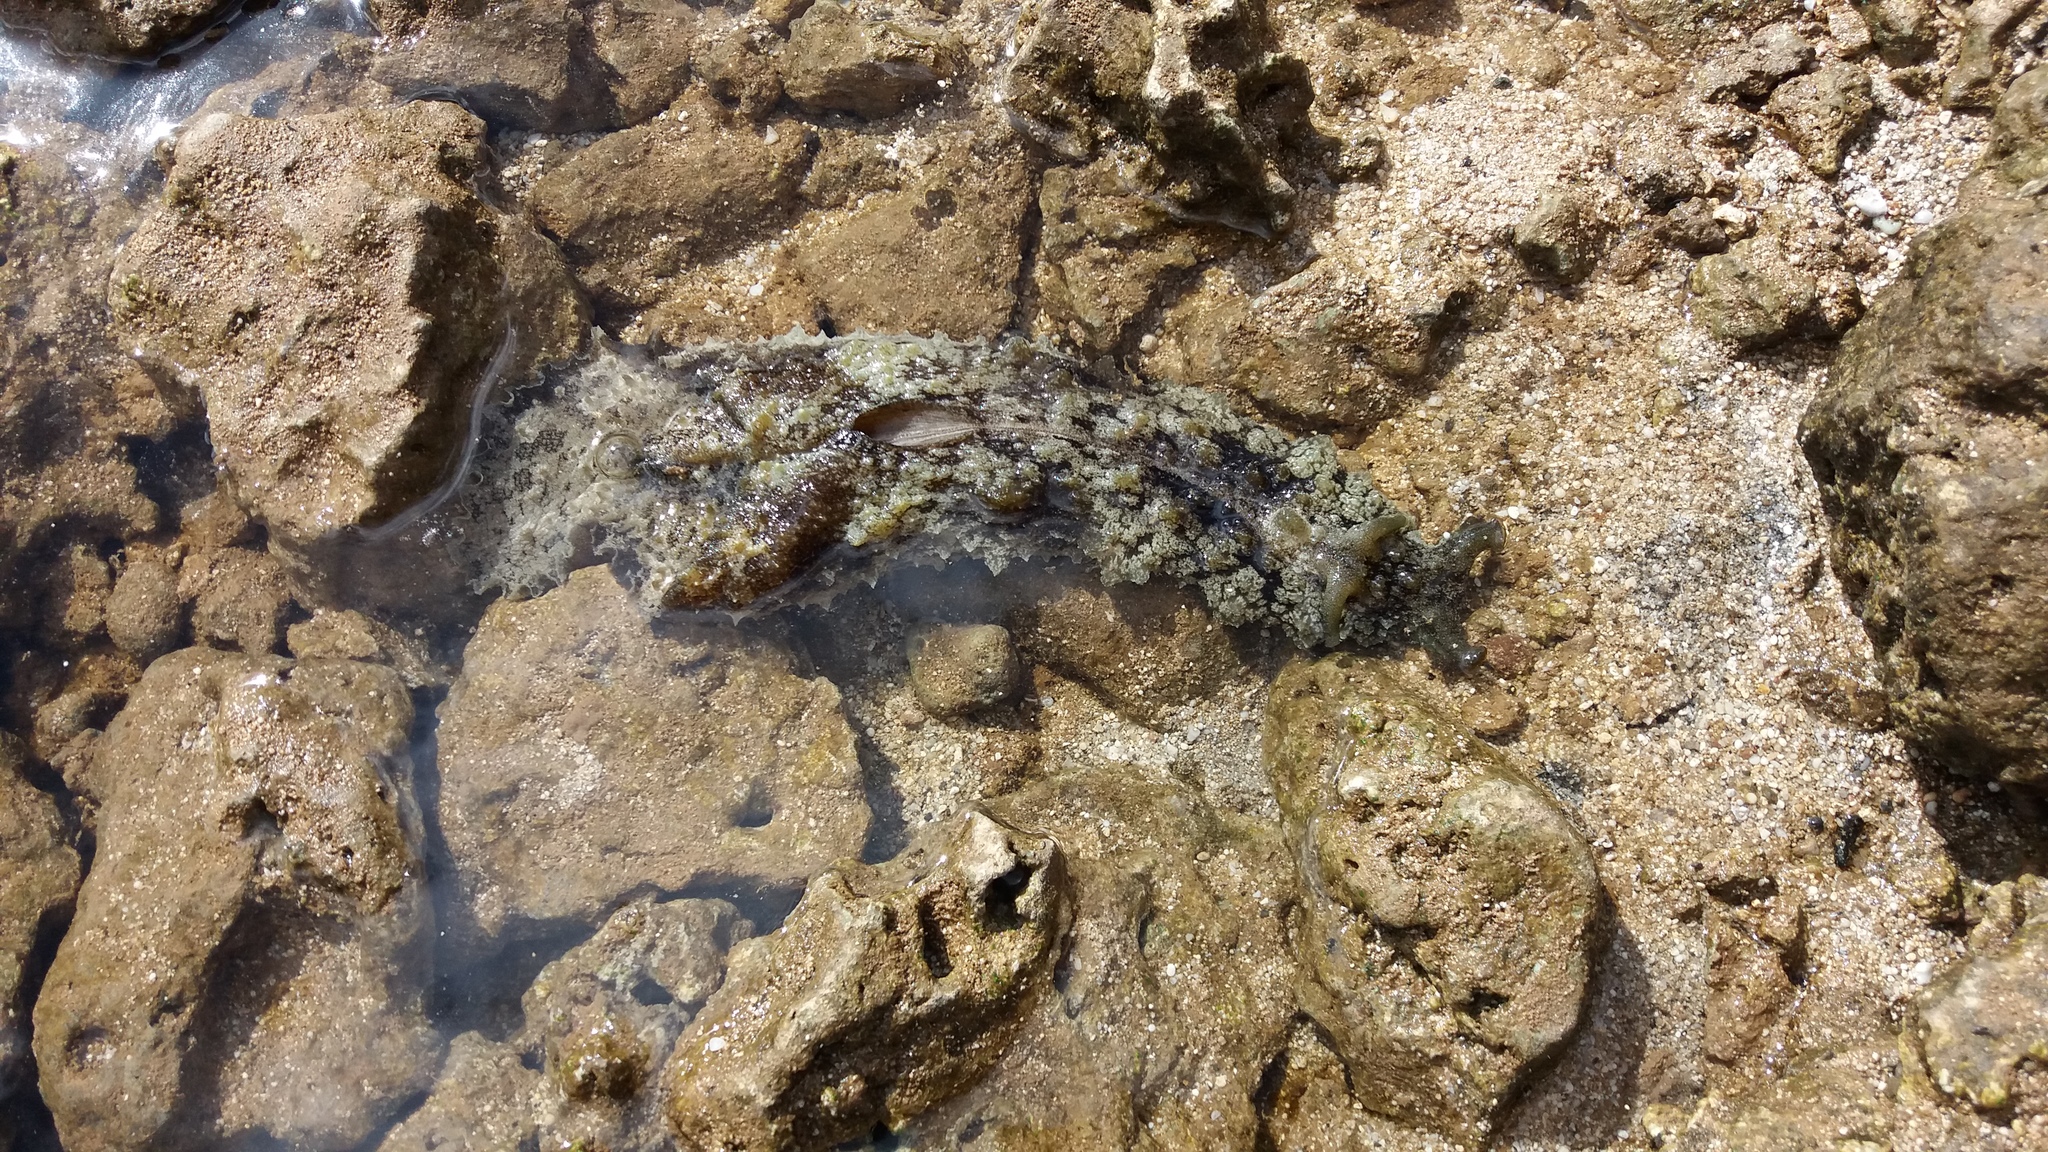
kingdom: Animalia
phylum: Mollusca
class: Gastropoda
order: Aplysiida
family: Aplysiidae
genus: Dolabella
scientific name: Dolabella auricularia
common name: Blunt-end seahare
